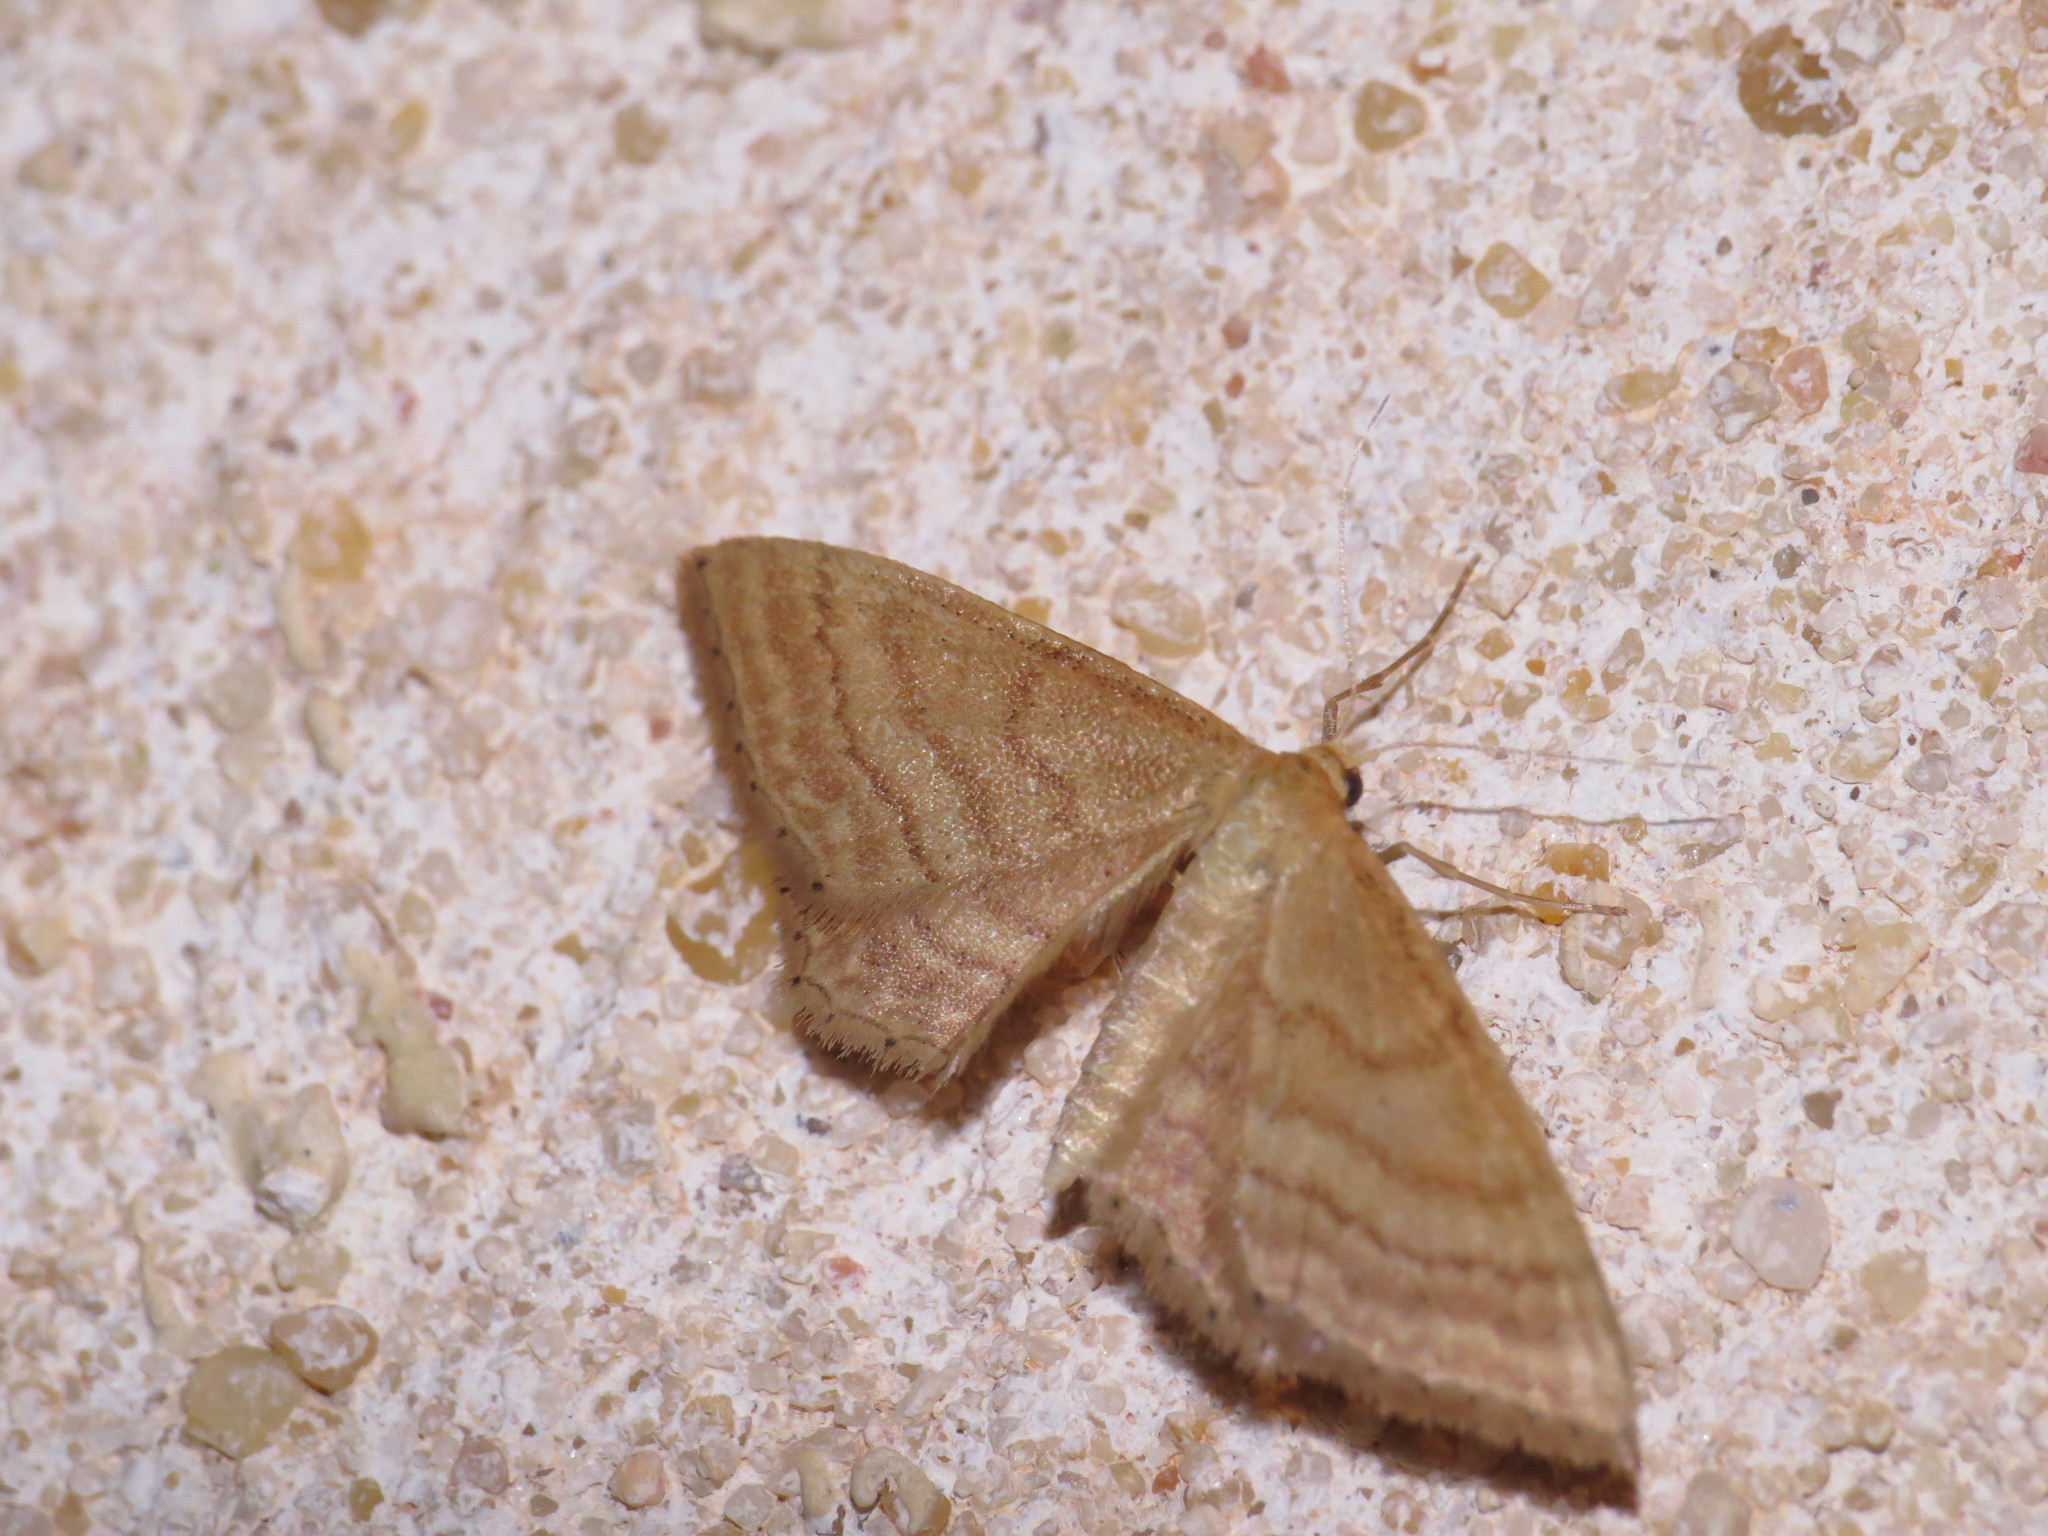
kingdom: Animalia
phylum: Arthropoda
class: Insecta
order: Lepidoptera
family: Geometridae
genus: Idaea
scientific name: Idaea ochrata
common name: Bright wave
